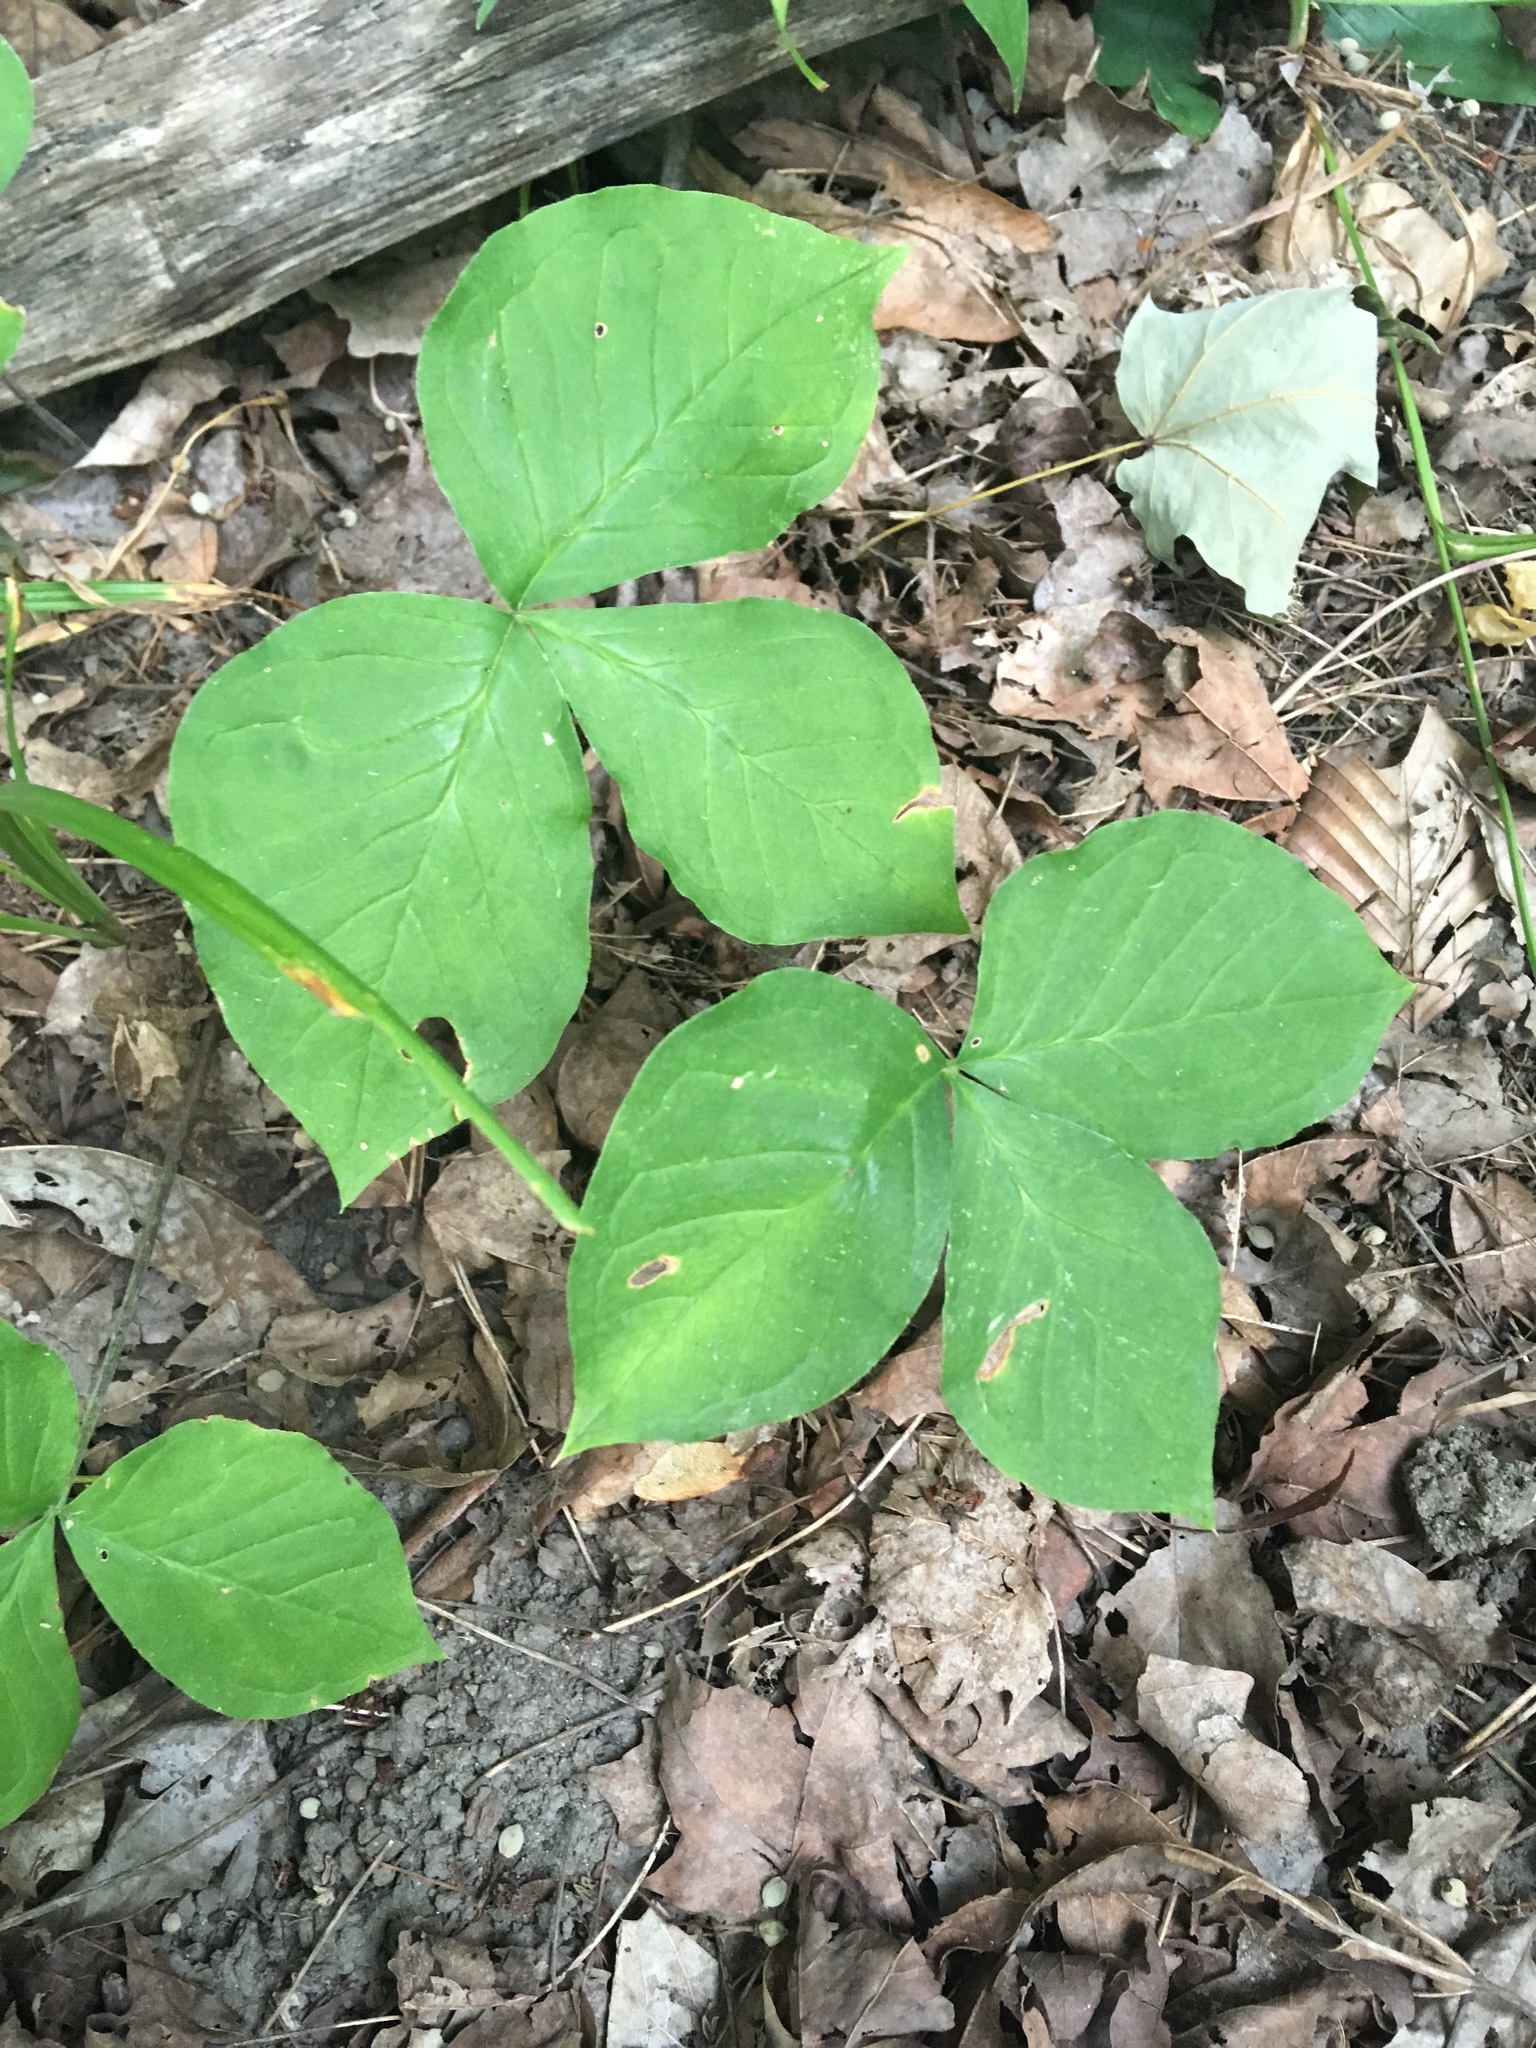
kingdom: Plantae
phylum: Tracheophyta
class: Liliopsida
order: Alismatales
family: Araceae
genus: Arisaema
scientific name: Arisaema triphyllum
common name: Jack-in-the-pulpit
